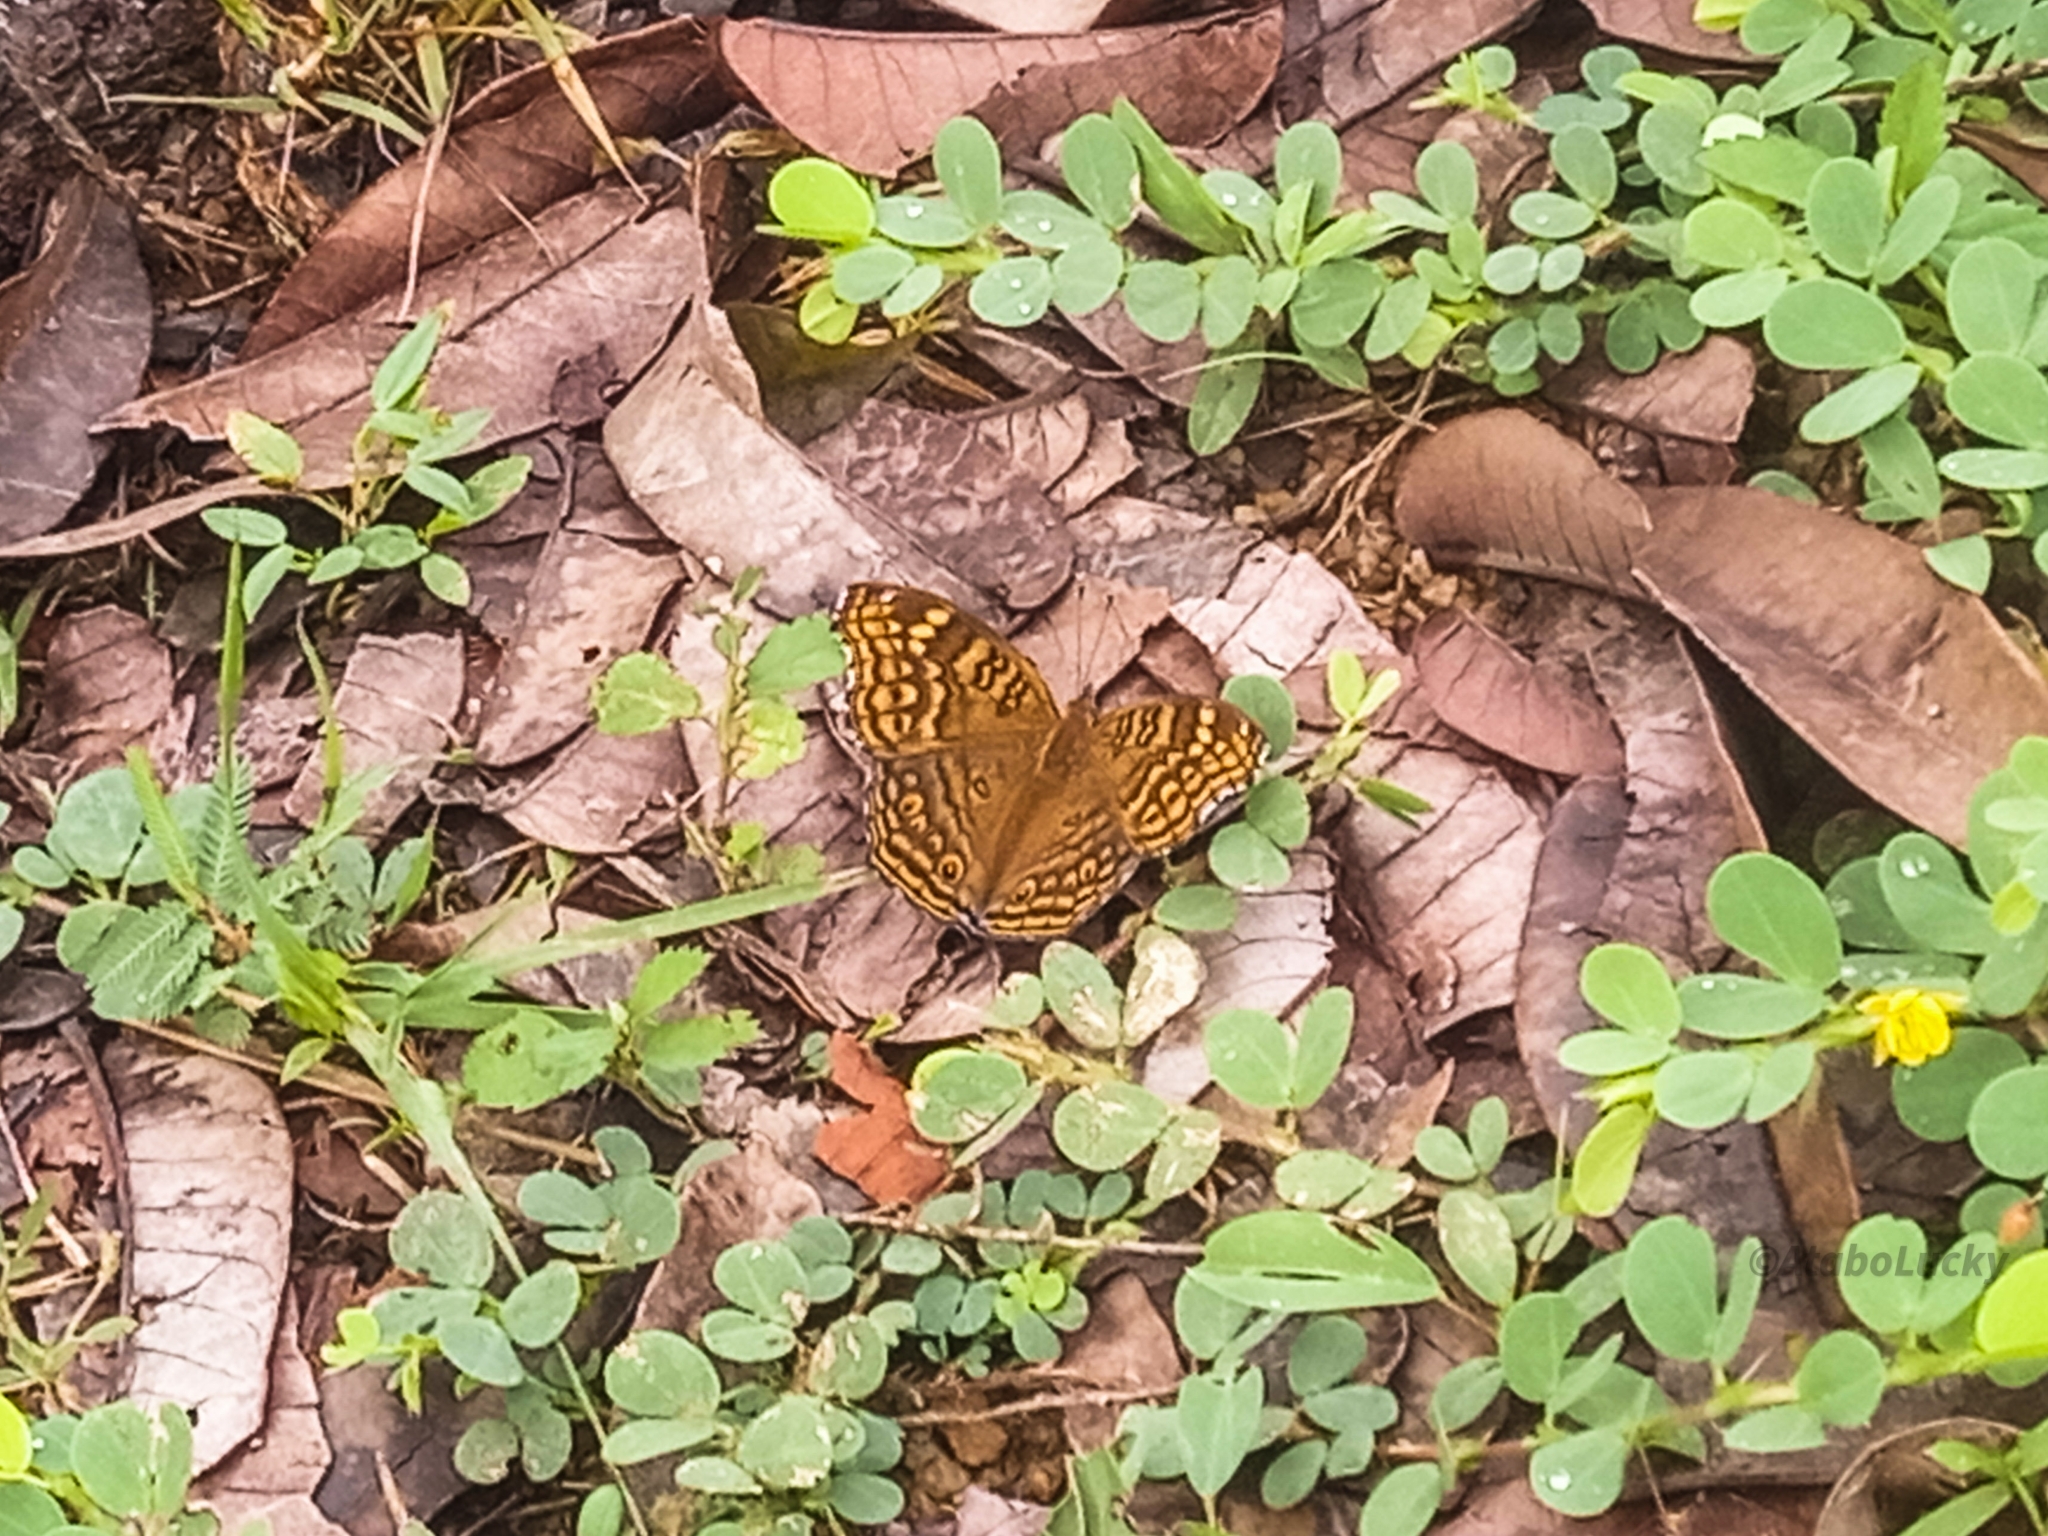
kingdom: Animalia
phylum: Arthropoda
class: Insecta
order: Lepidoptera
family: Nymphalidae
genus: Junonia
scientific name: Junonia chorimene
